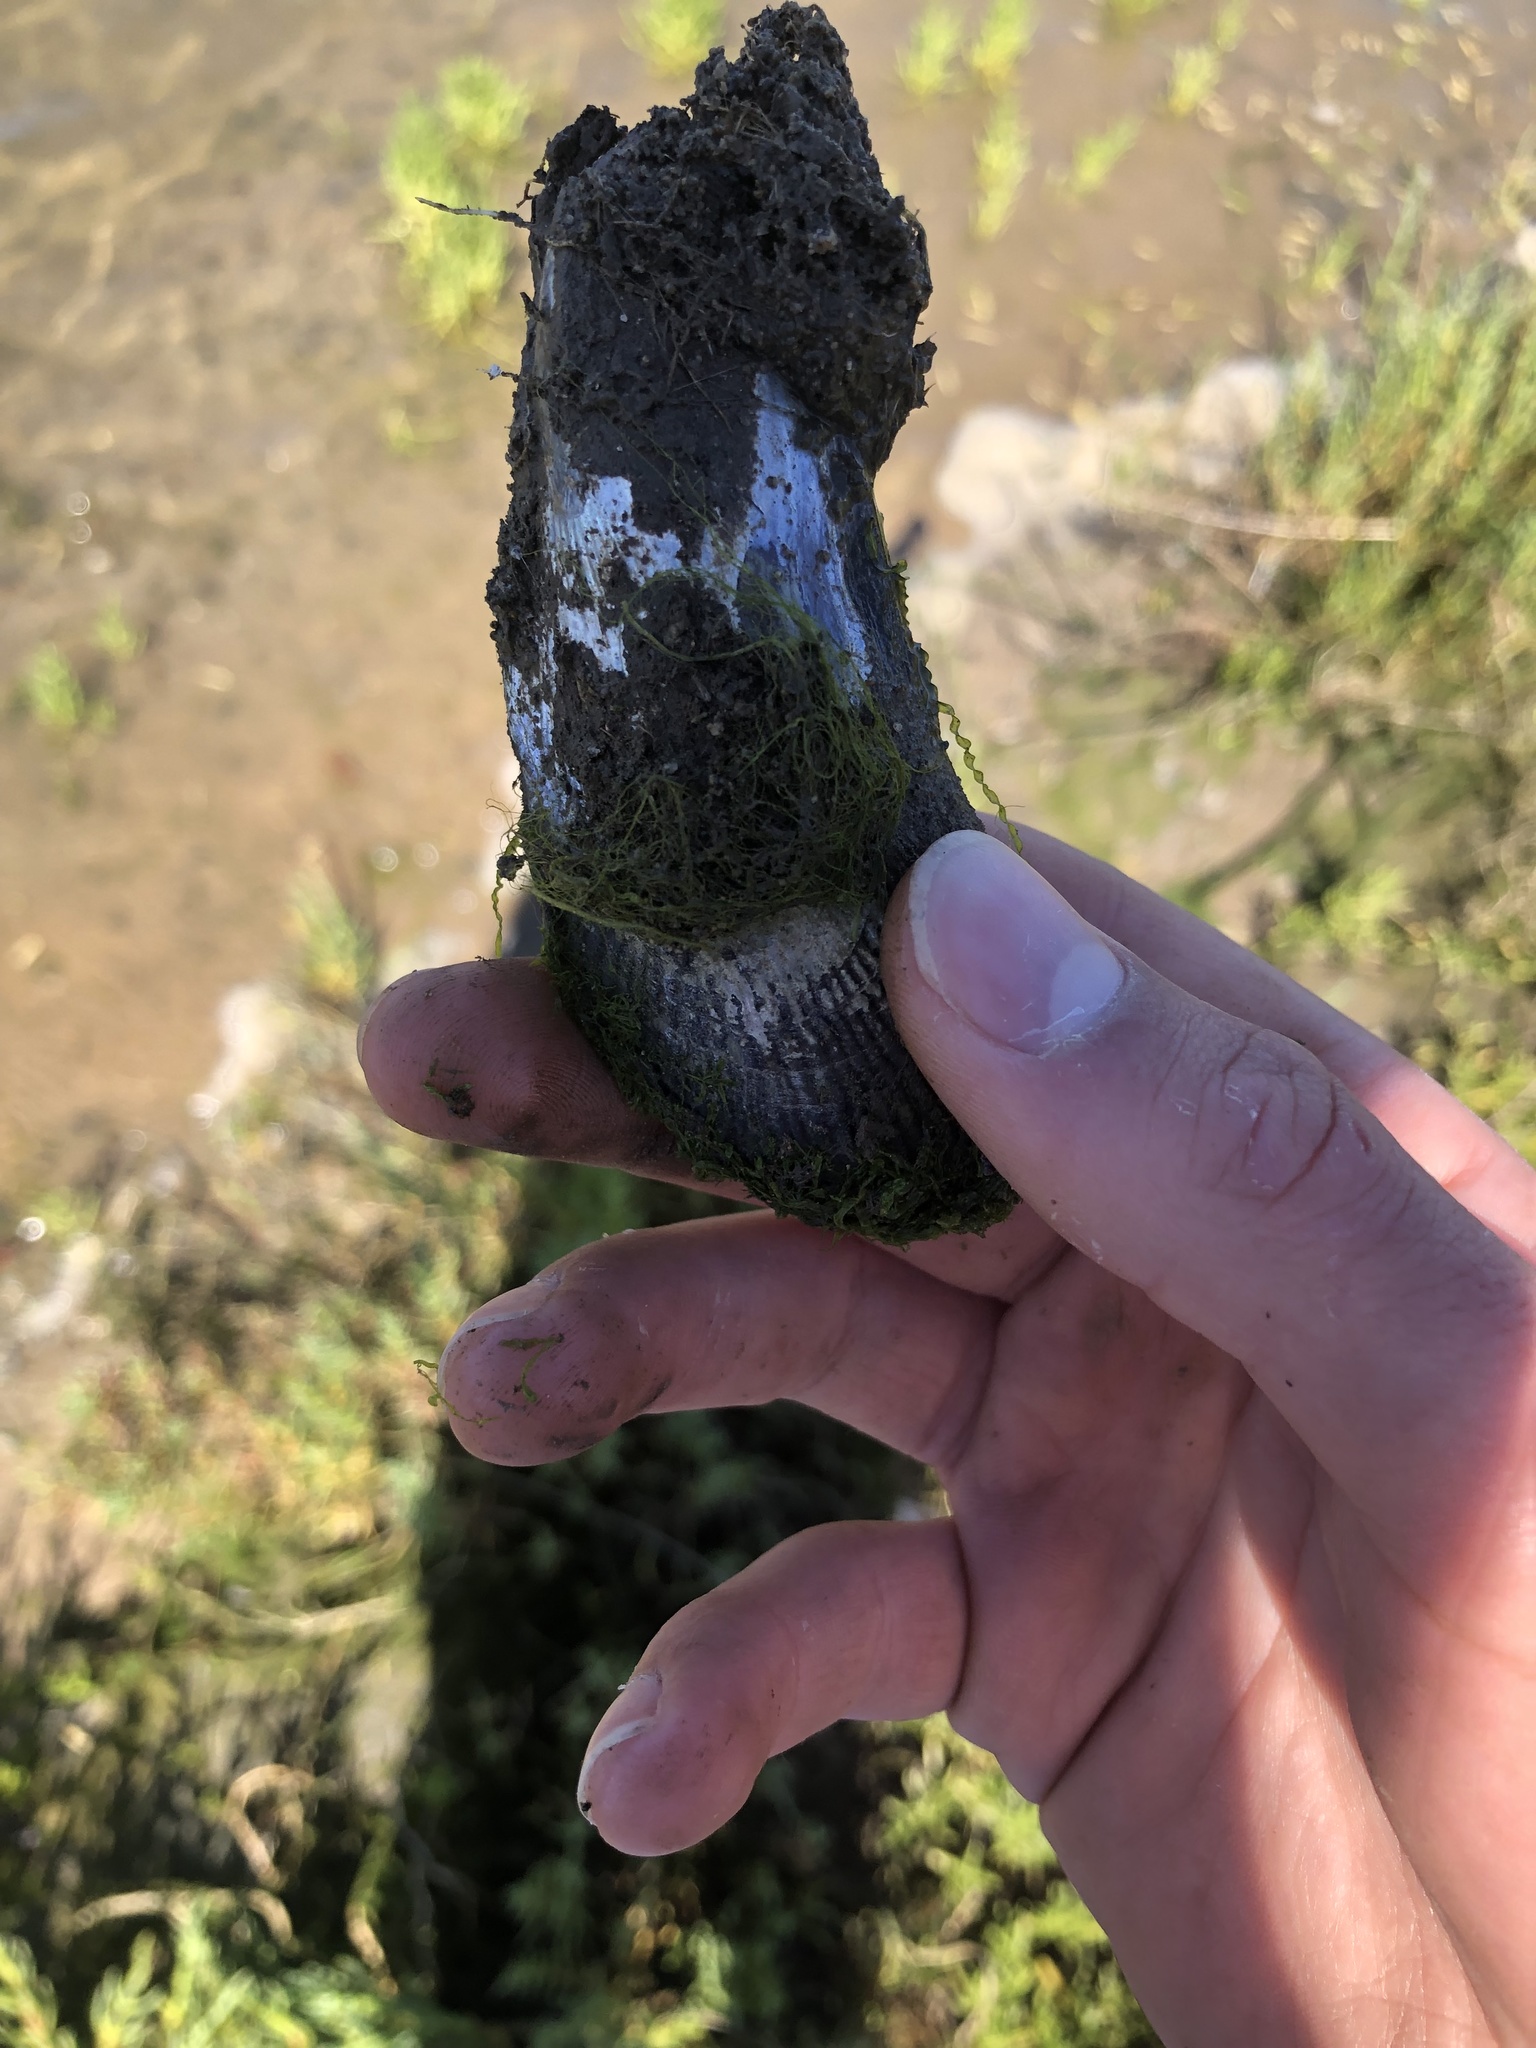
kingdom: Animalia
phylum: Mollusca
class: Bivalvia
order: Mytilida
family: Mytilidae
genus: Geukensia
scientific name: Geukensia demissa
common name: Ribbed mussel
